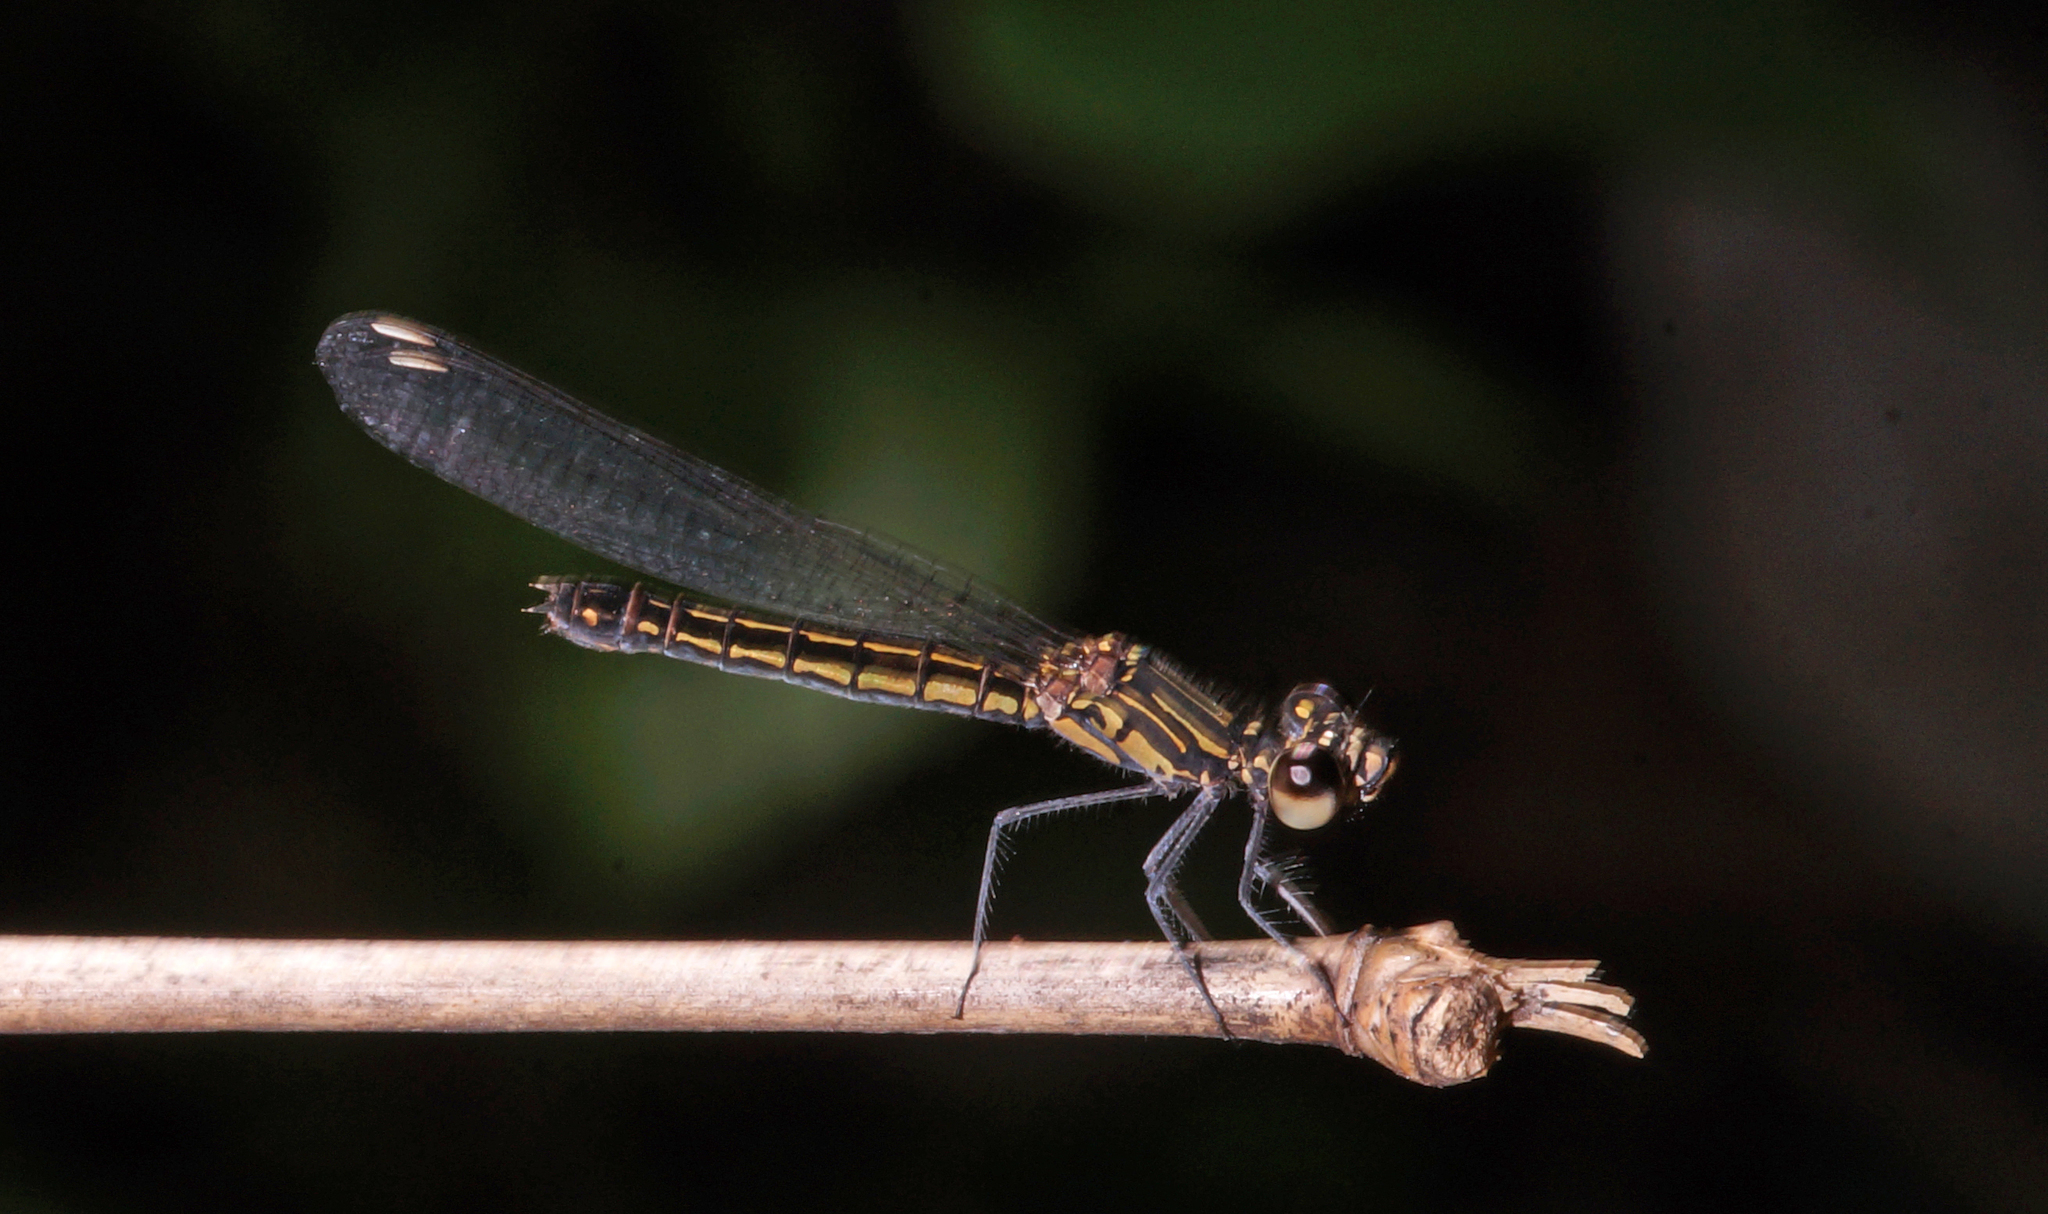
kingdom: Animalia
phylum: Arthropoda
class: Insecta
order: Odonata
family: Chlorocyphidae
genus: Libellago
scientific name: Libellago lineata
